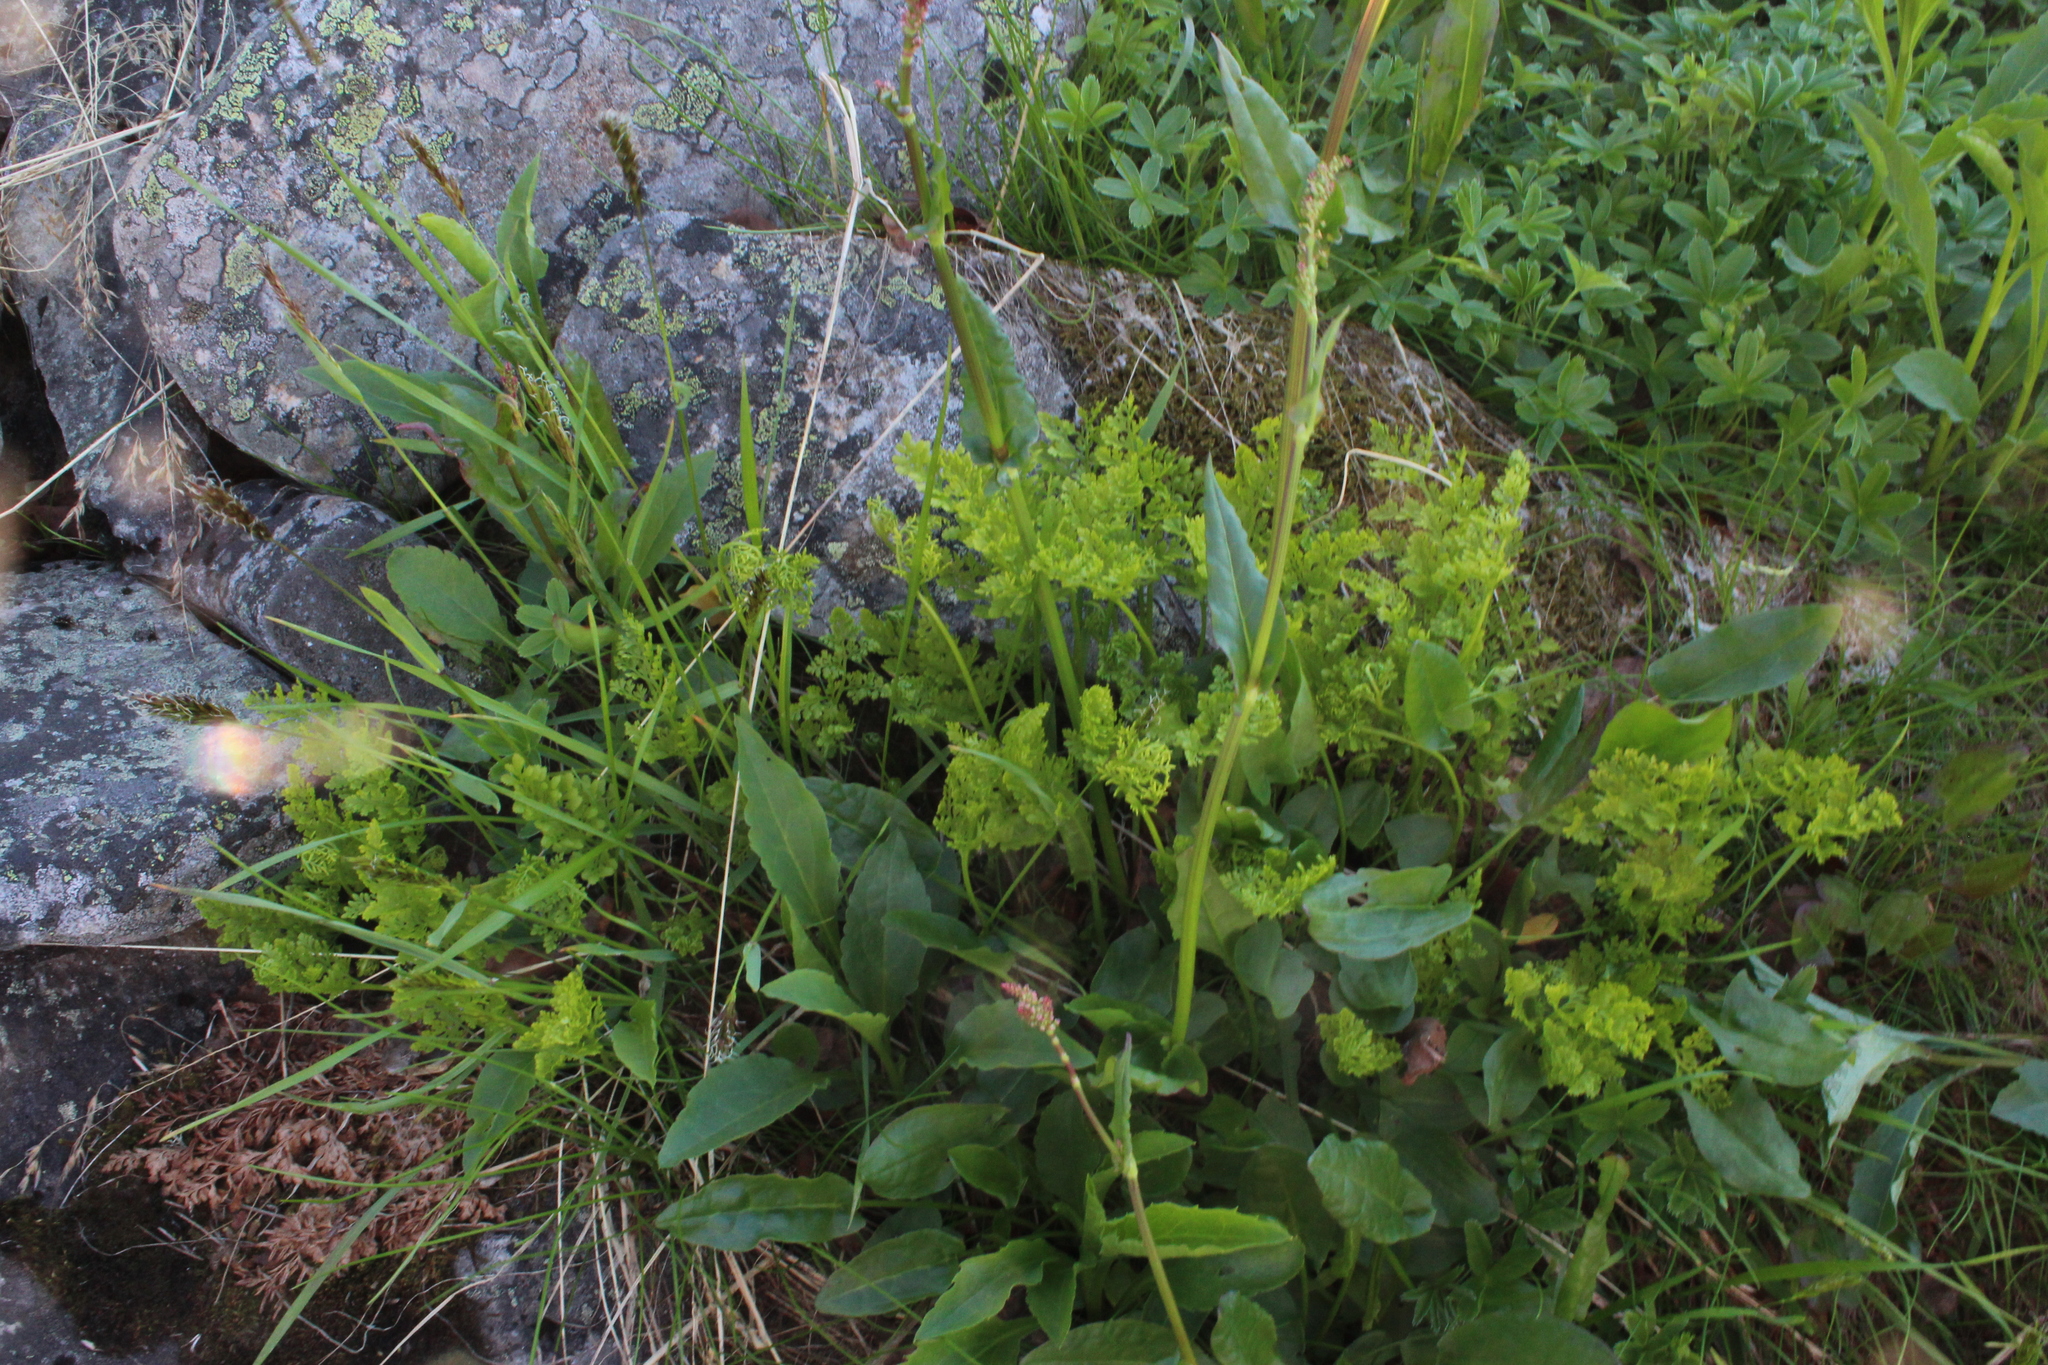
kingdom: Plantae
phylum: Tracheophyta
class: Polypodiopsida
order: Polypodiales
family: Pteridaceae
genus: Cryptogramma
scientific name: Cryptogramma crispa
